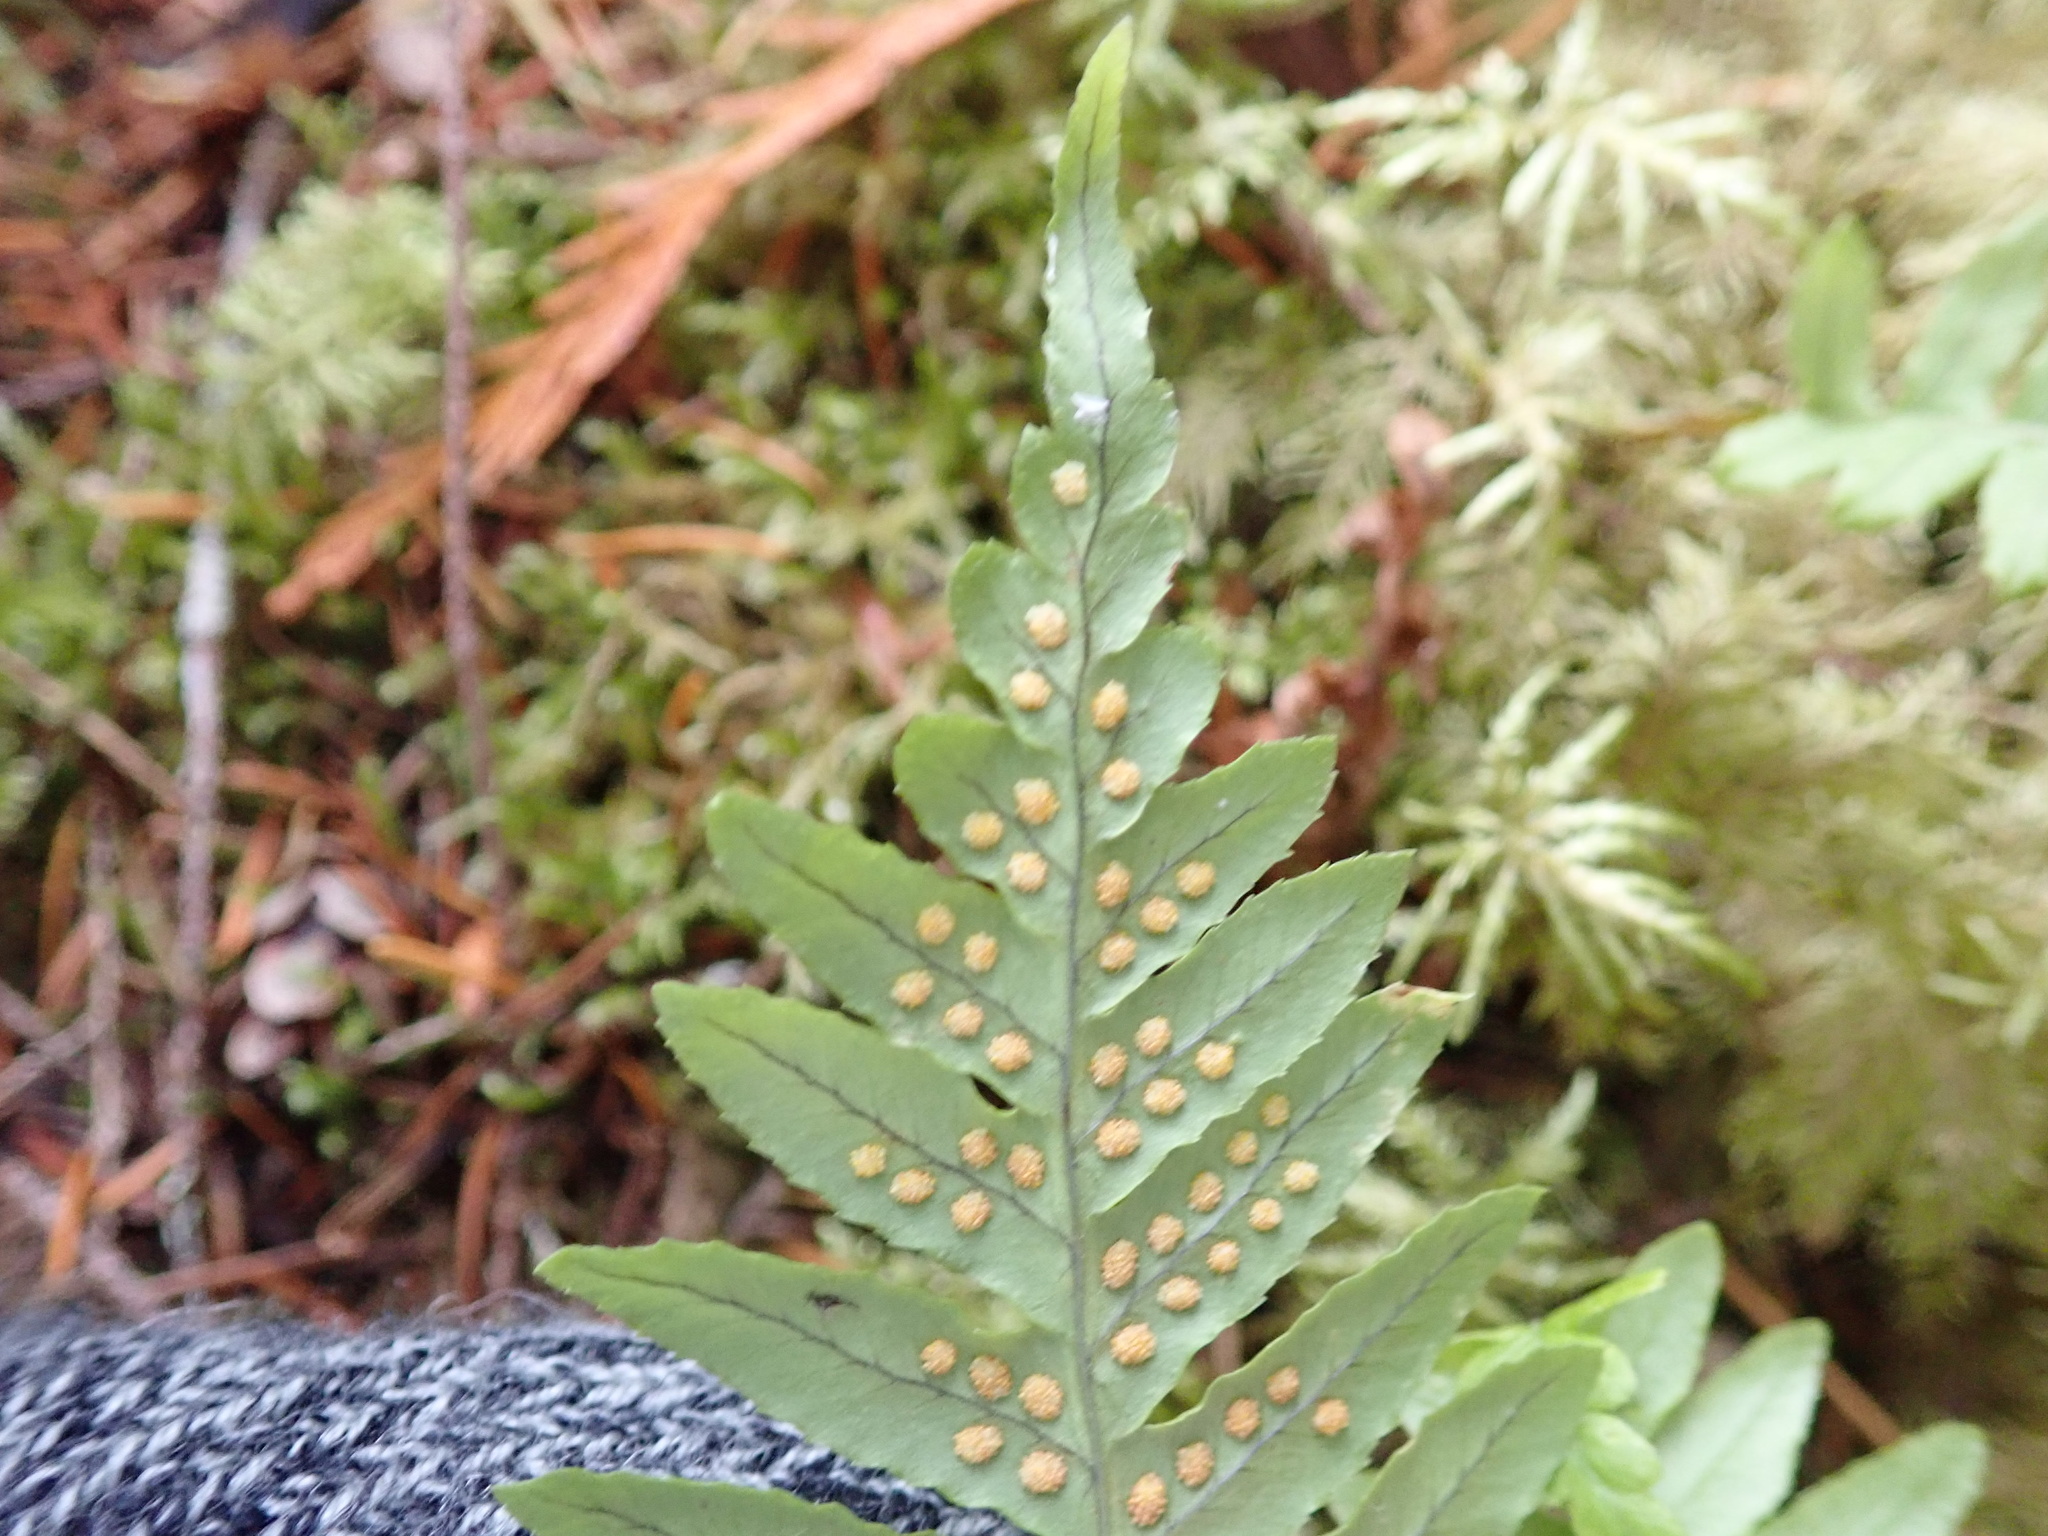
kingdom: Plantae
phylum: Tracheophyta
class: Polypodiopsida
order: Polypodiales
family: Polypodiaceae
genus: Polypodium
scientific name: Polypodium glycyrrhiza
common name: Licorice fern
